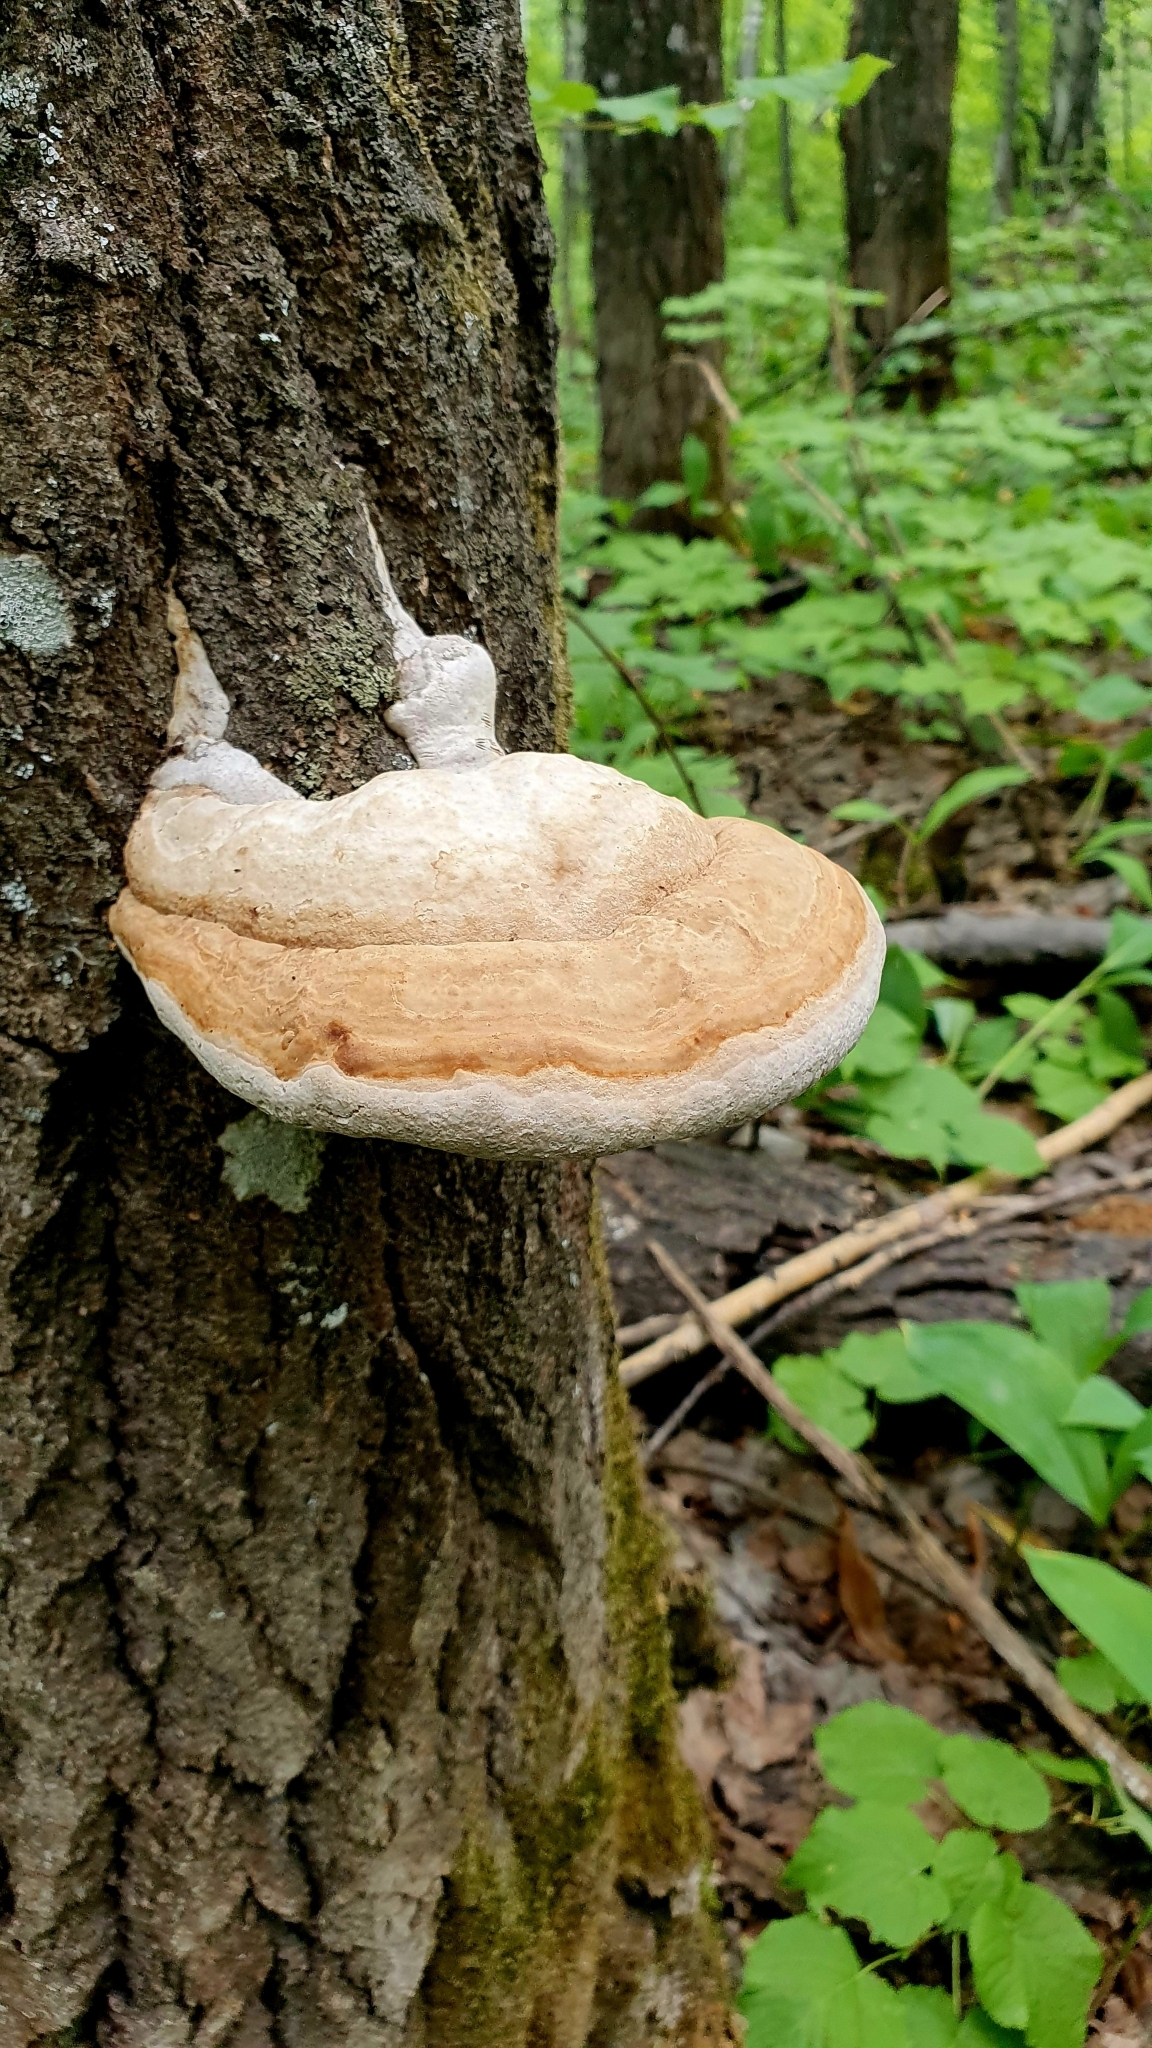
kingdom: Fungi
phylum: Basidiomycota
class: Agaricomycetes
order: Polyporales
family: Polyporaceae
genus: Fomes
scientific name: Fomes fomentarius
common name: Hoof fungus
